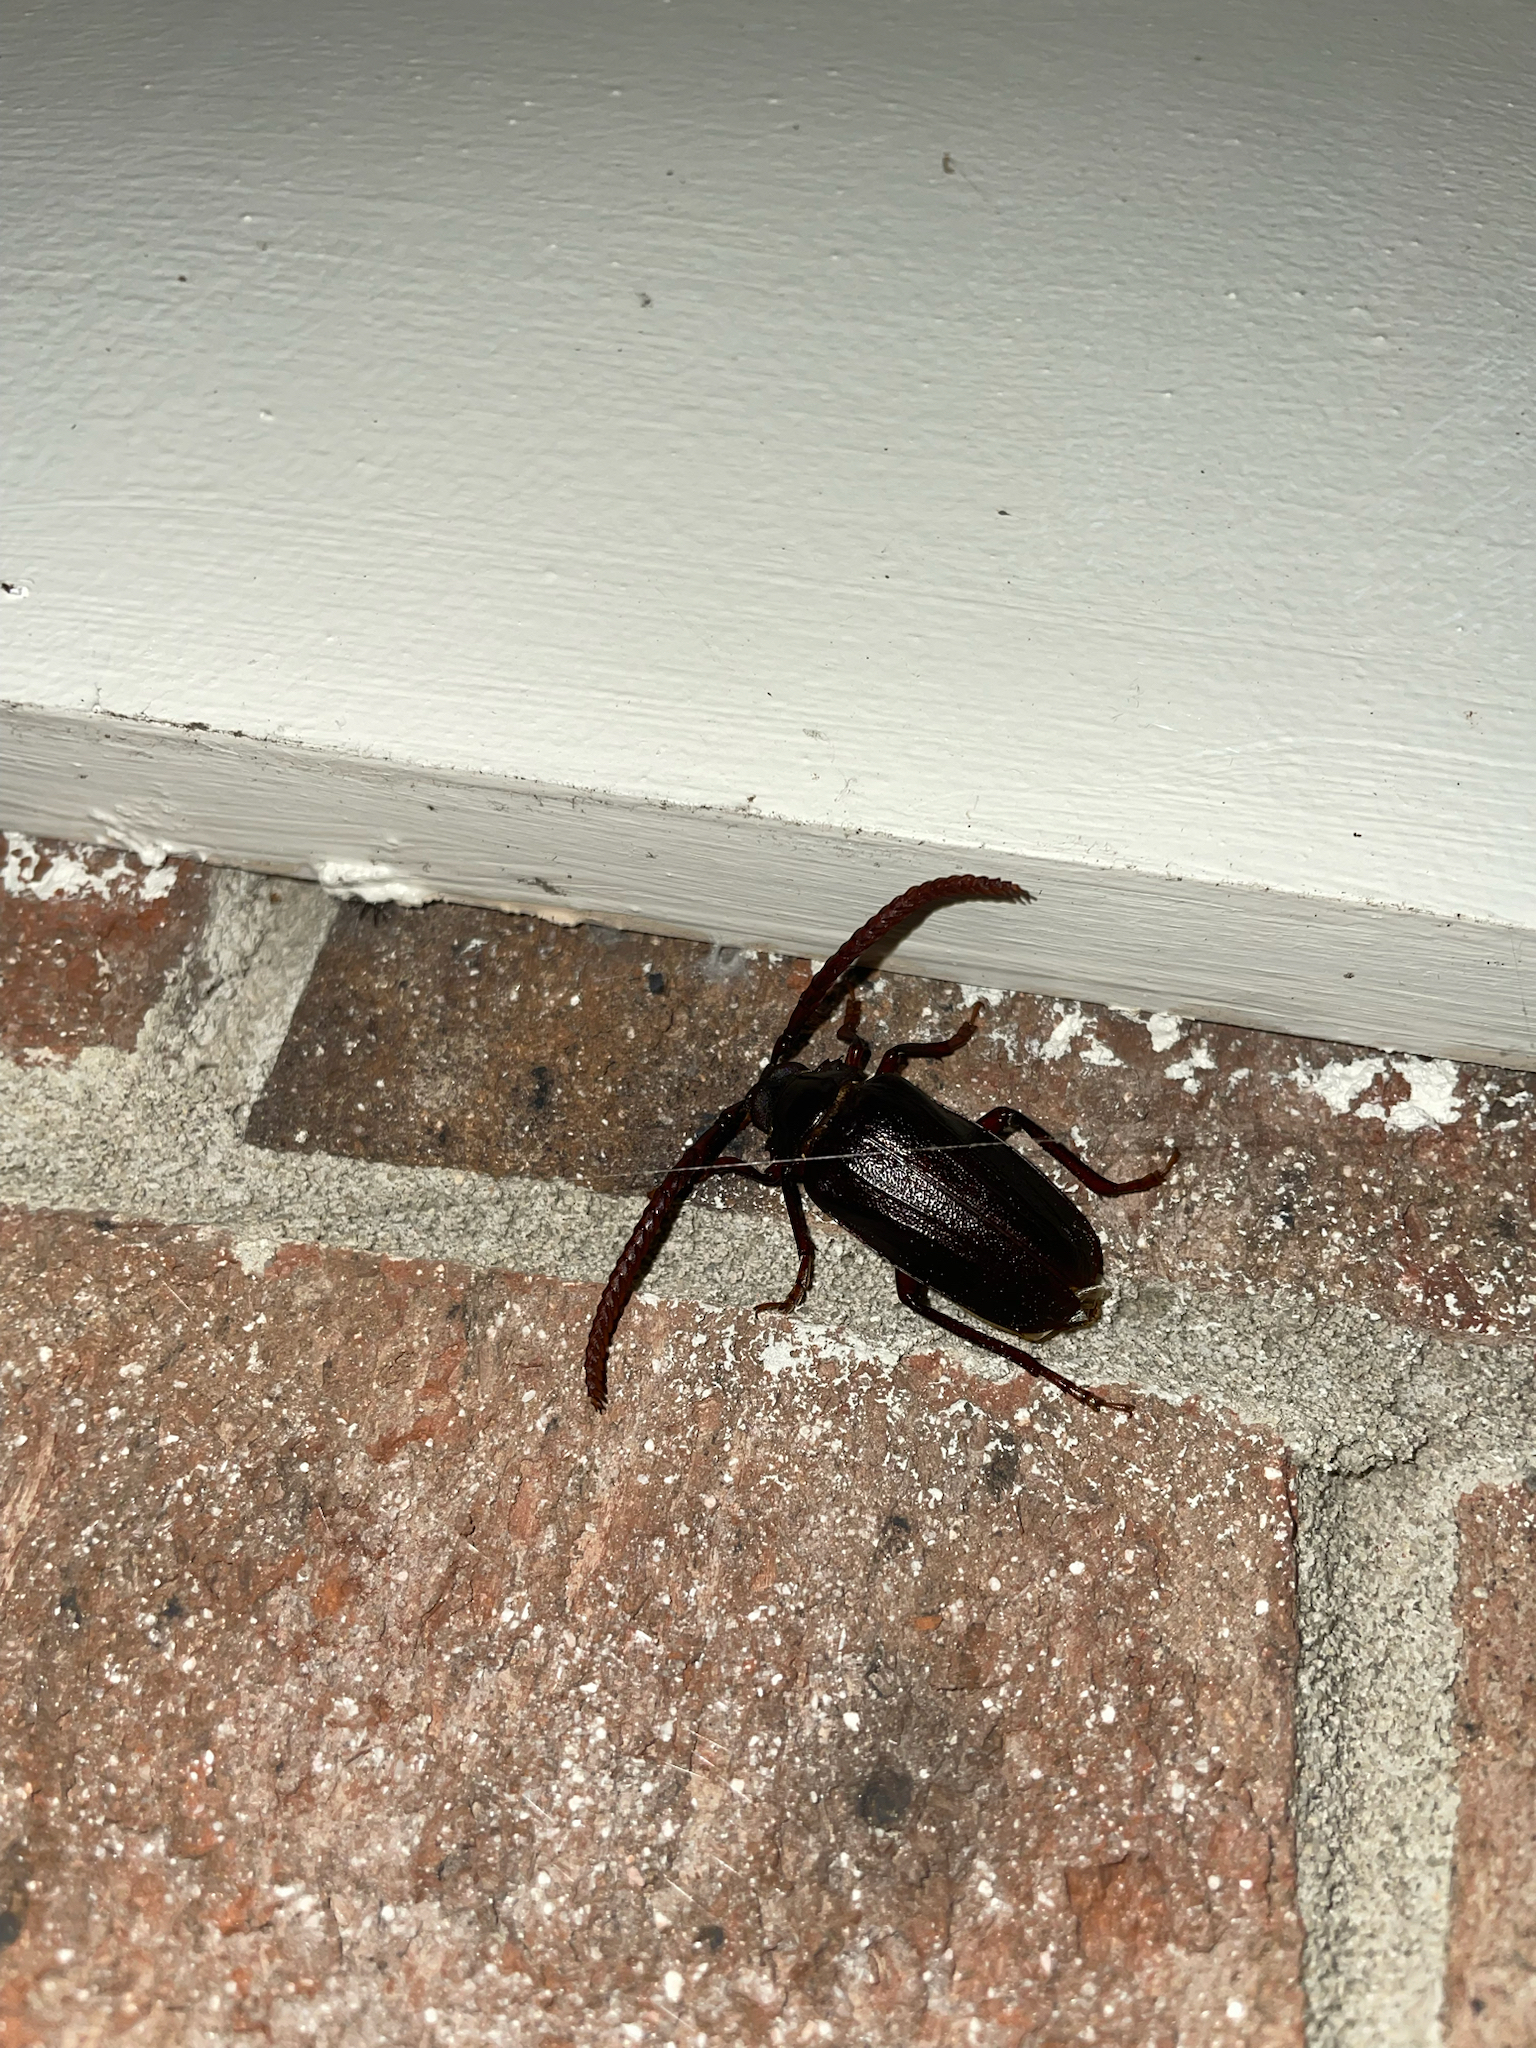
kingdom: Animalia
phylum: Arthropoda
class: Insecta
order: Coleoptera
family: Cerambycidae
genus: Prionus
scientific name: Prionus imbricornis
